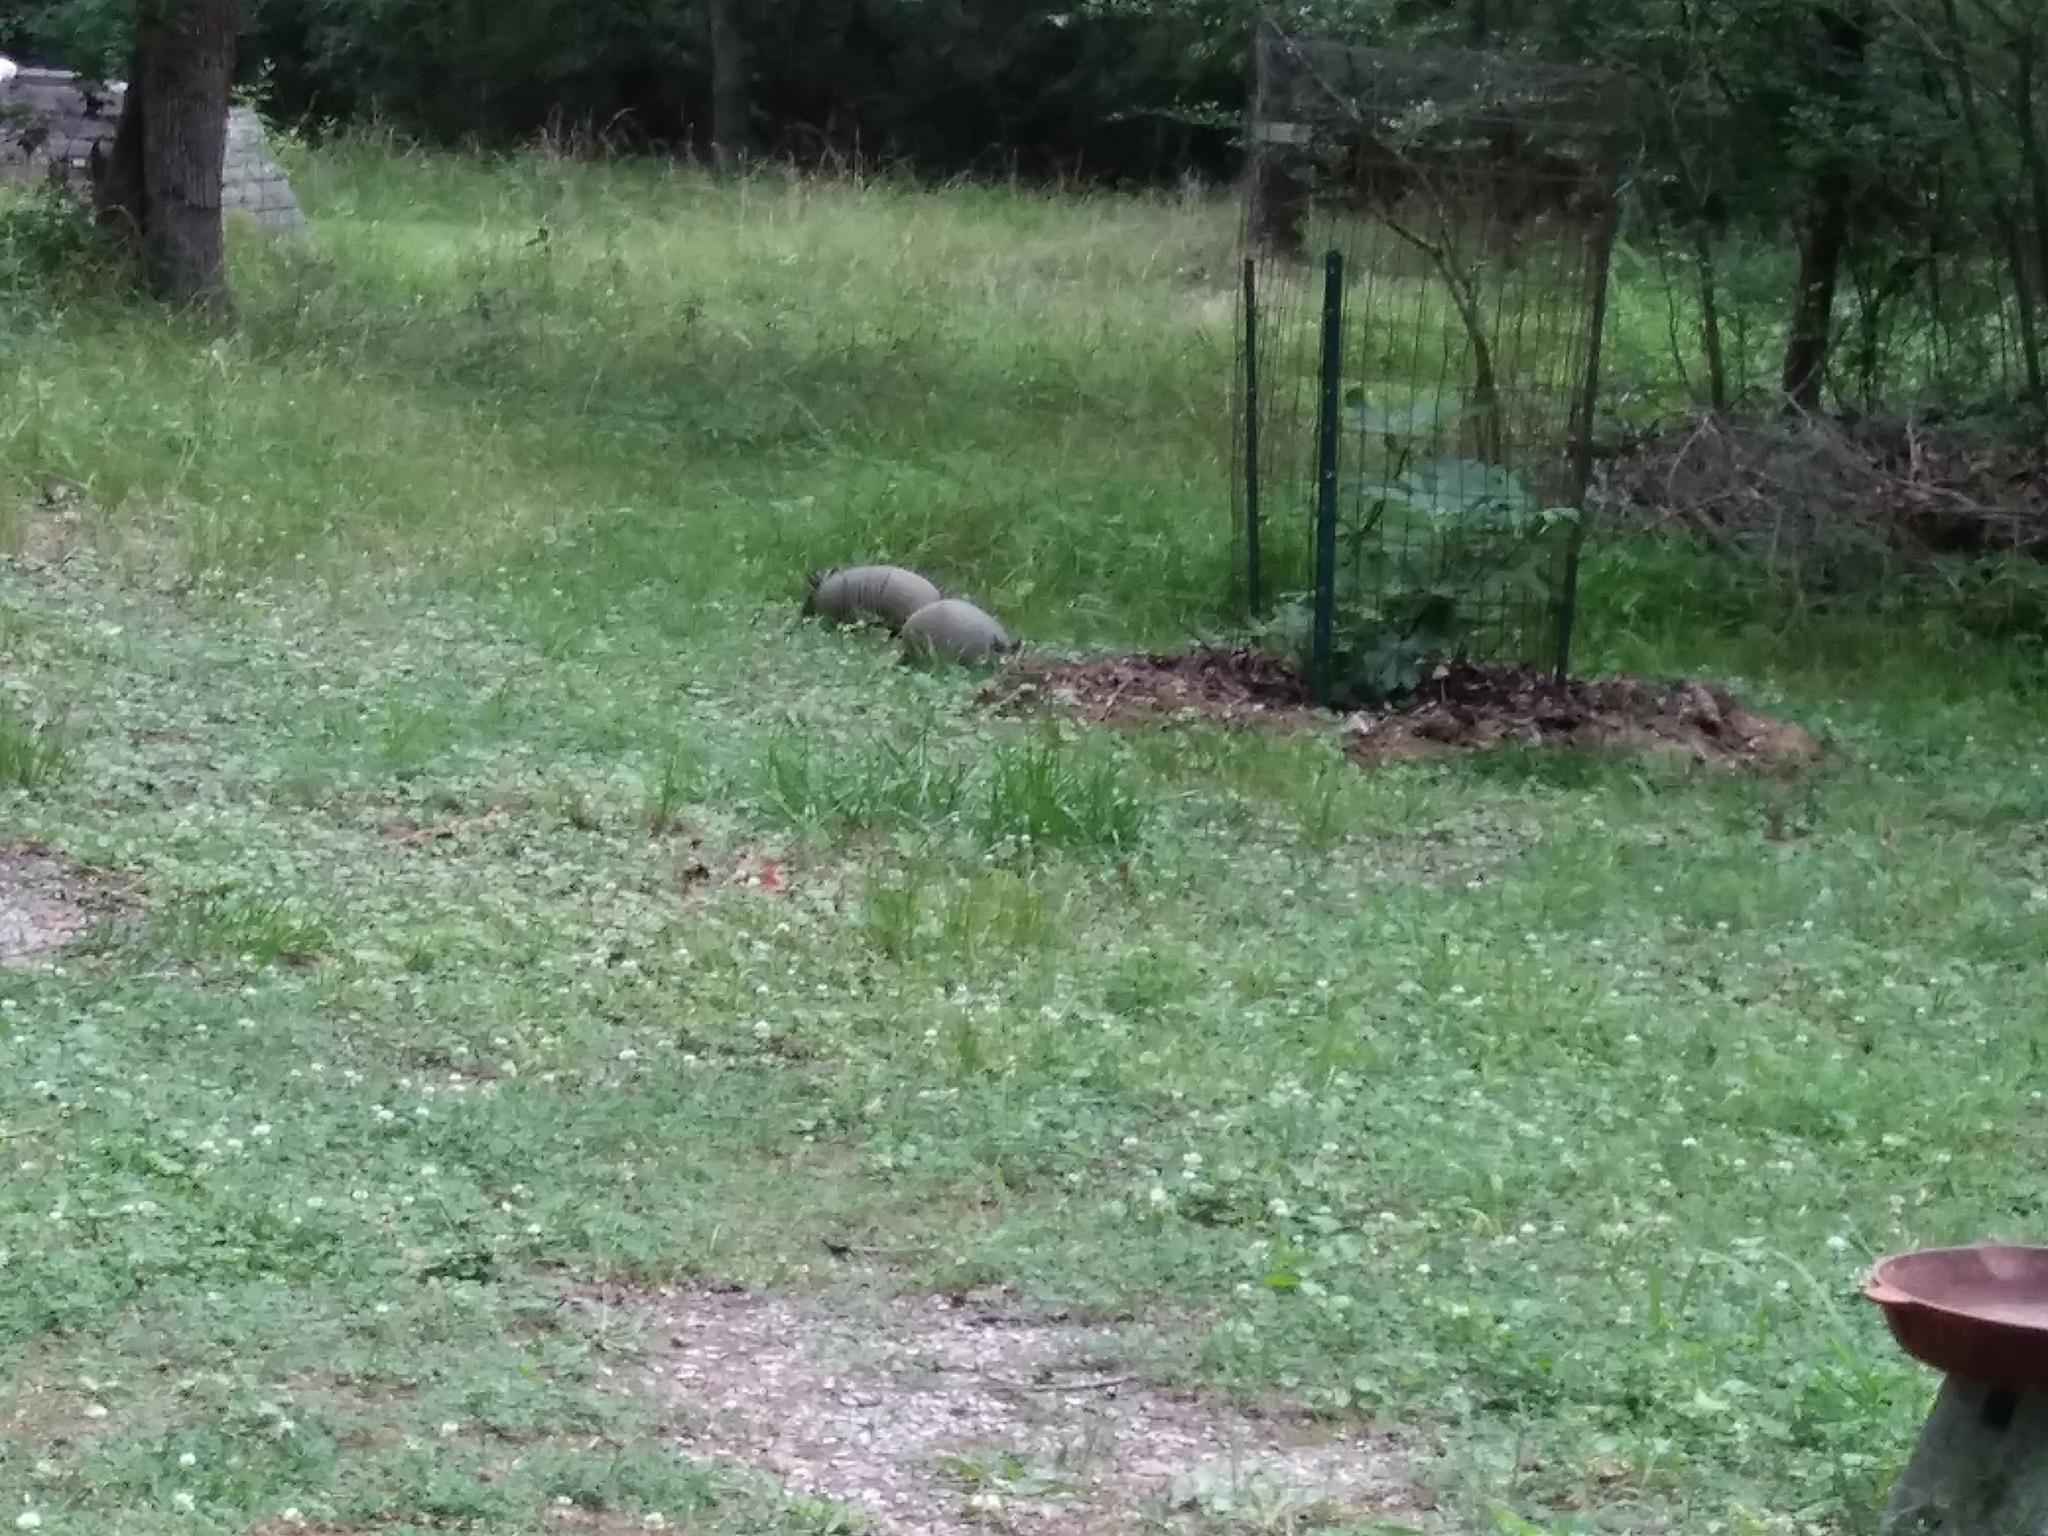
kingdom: Animalia
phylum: Chordata
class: Mammalia
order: Cingulata
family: Dasypodidae
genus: Dasypus
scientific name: Dasypus novemcinctus
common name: Nine-banded armadillo
